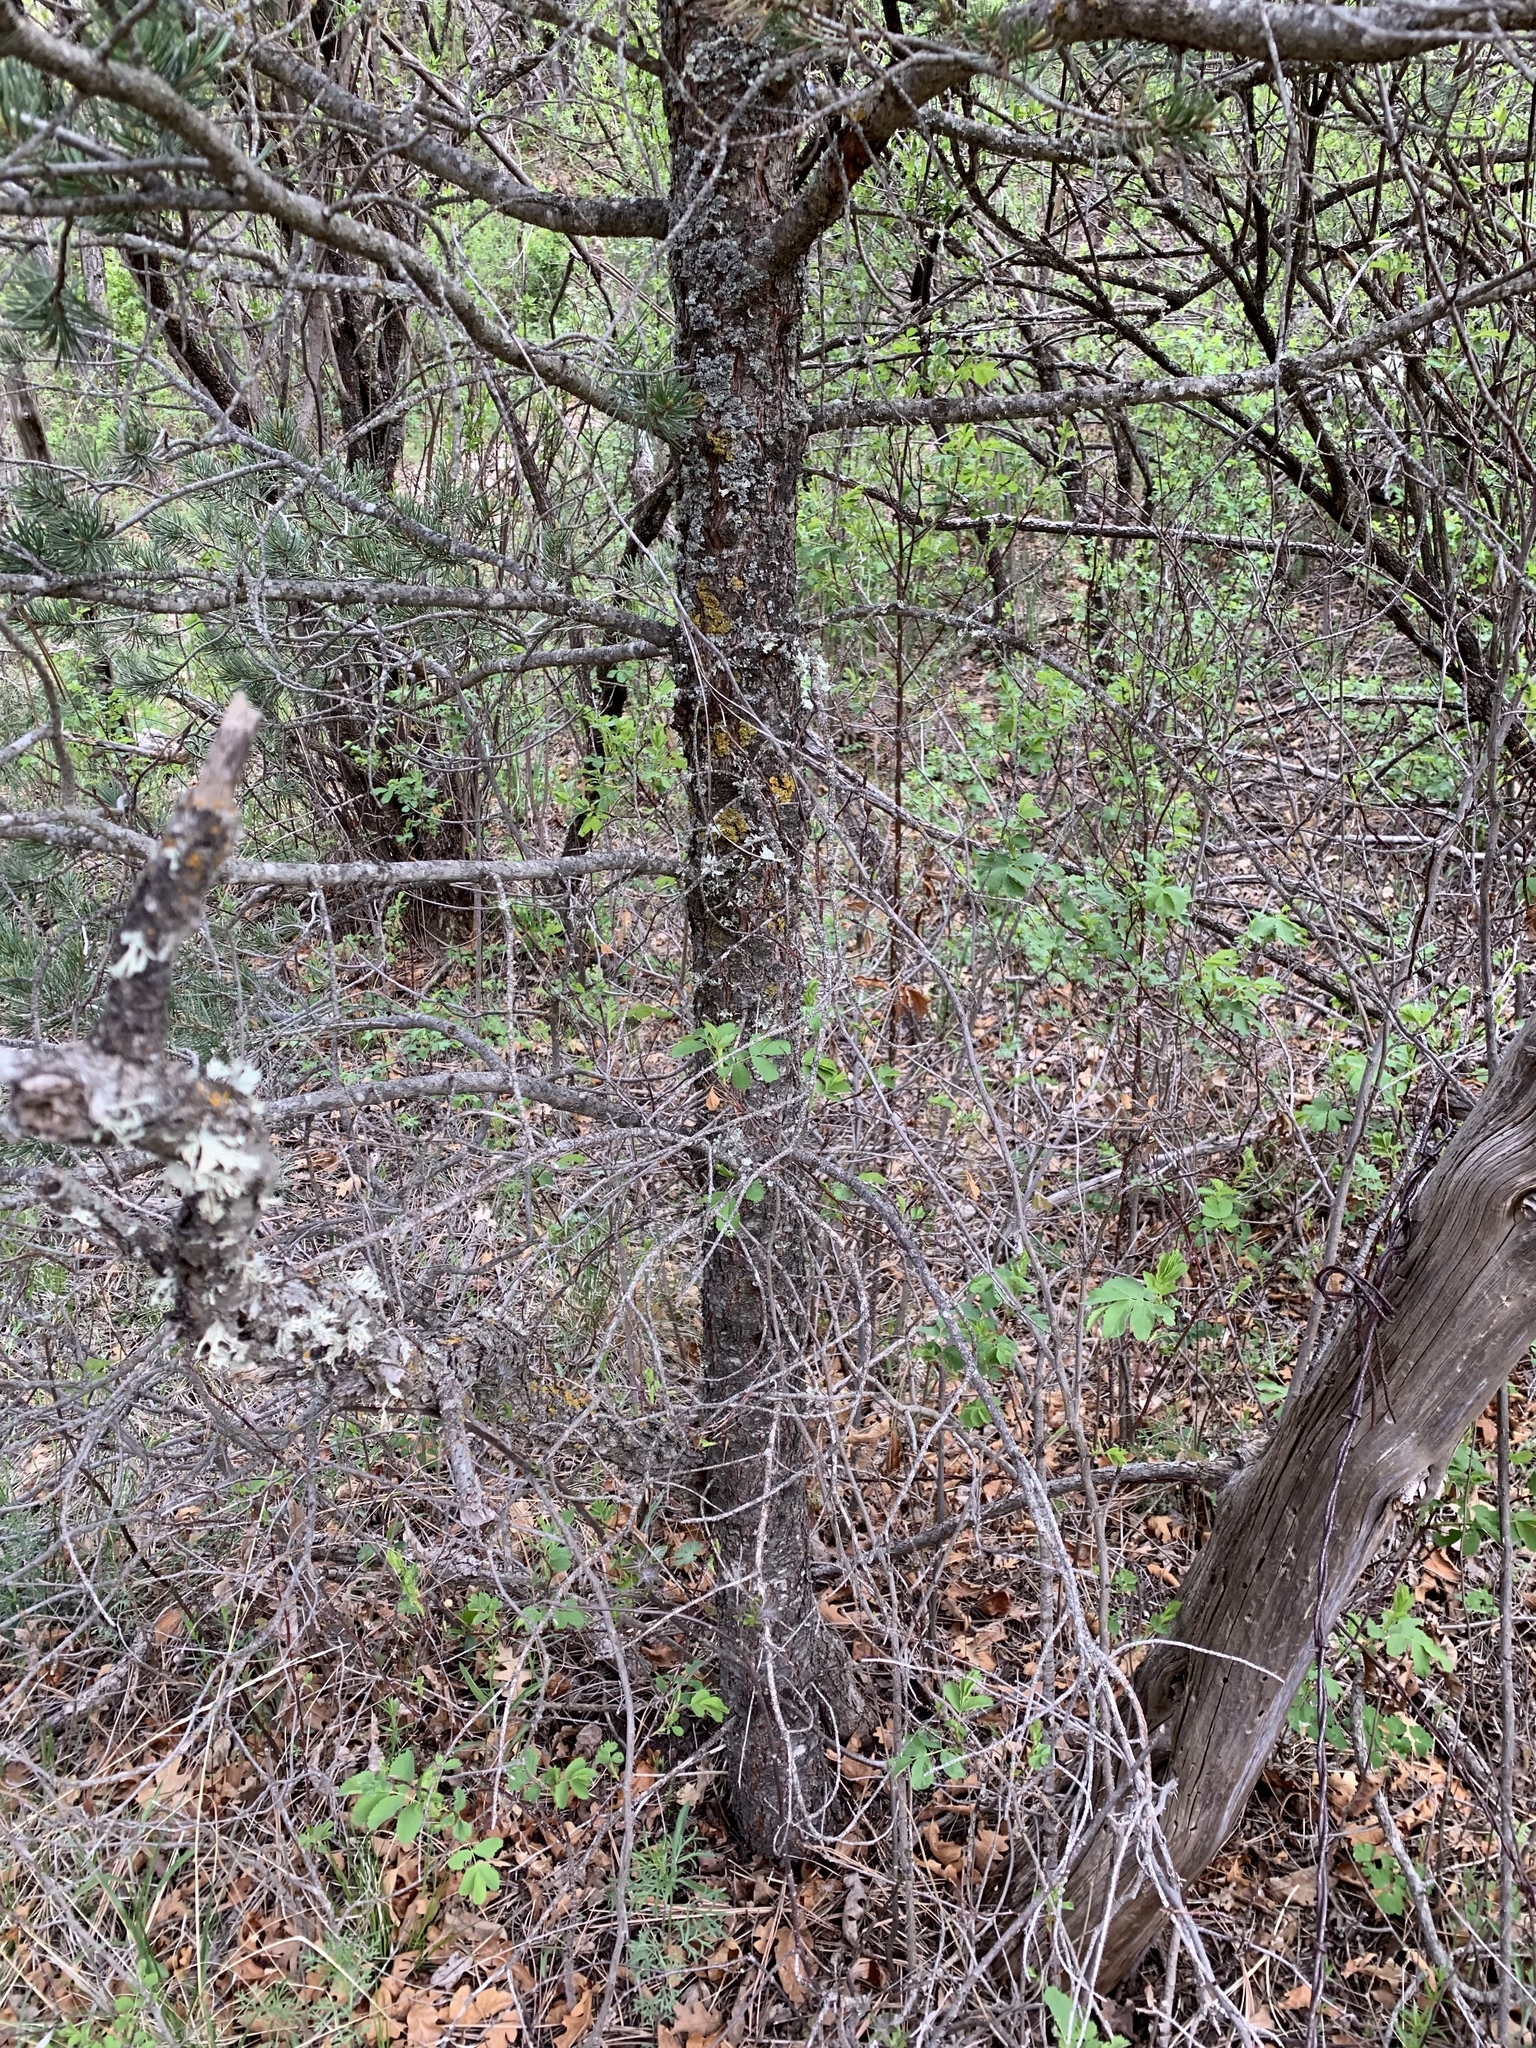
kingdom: Plantae
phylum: Tracheophyta
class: Pinopsida
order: Pinales
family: Pinaceae
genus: Pinus
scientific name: Pinus edulis
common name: Colorado pinyon
